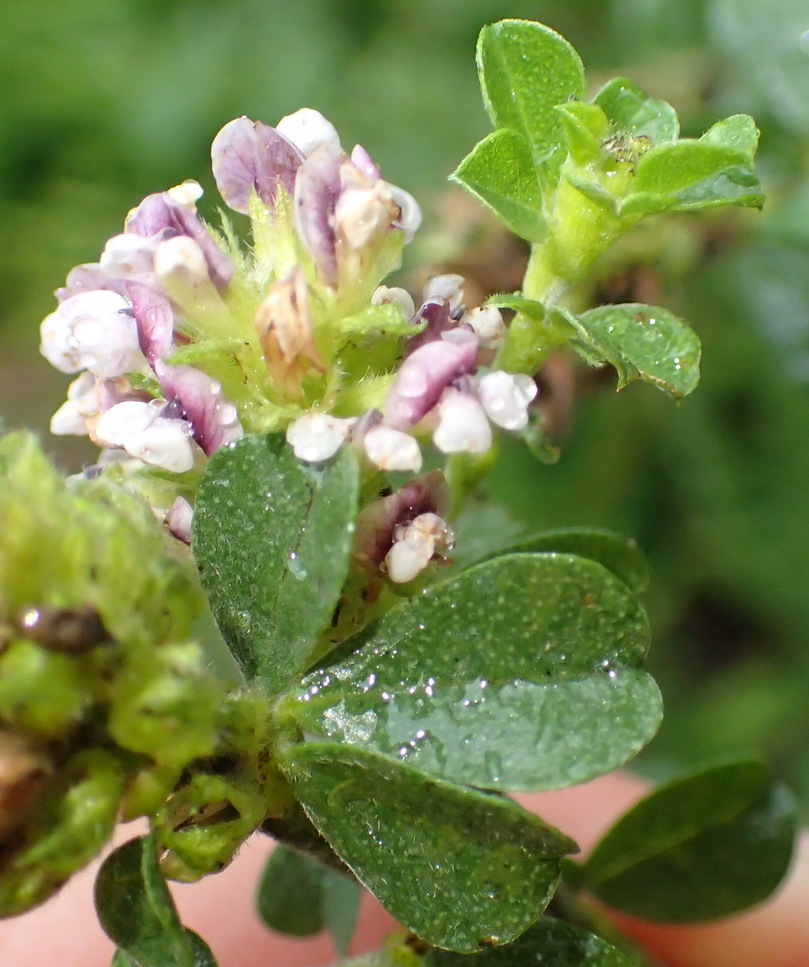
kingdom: Plantae
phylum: Tracheophyta
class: Magnoliopsida
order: Fabales
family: Fabaceae
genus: Psoralea
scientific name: Psoralea stachyera
